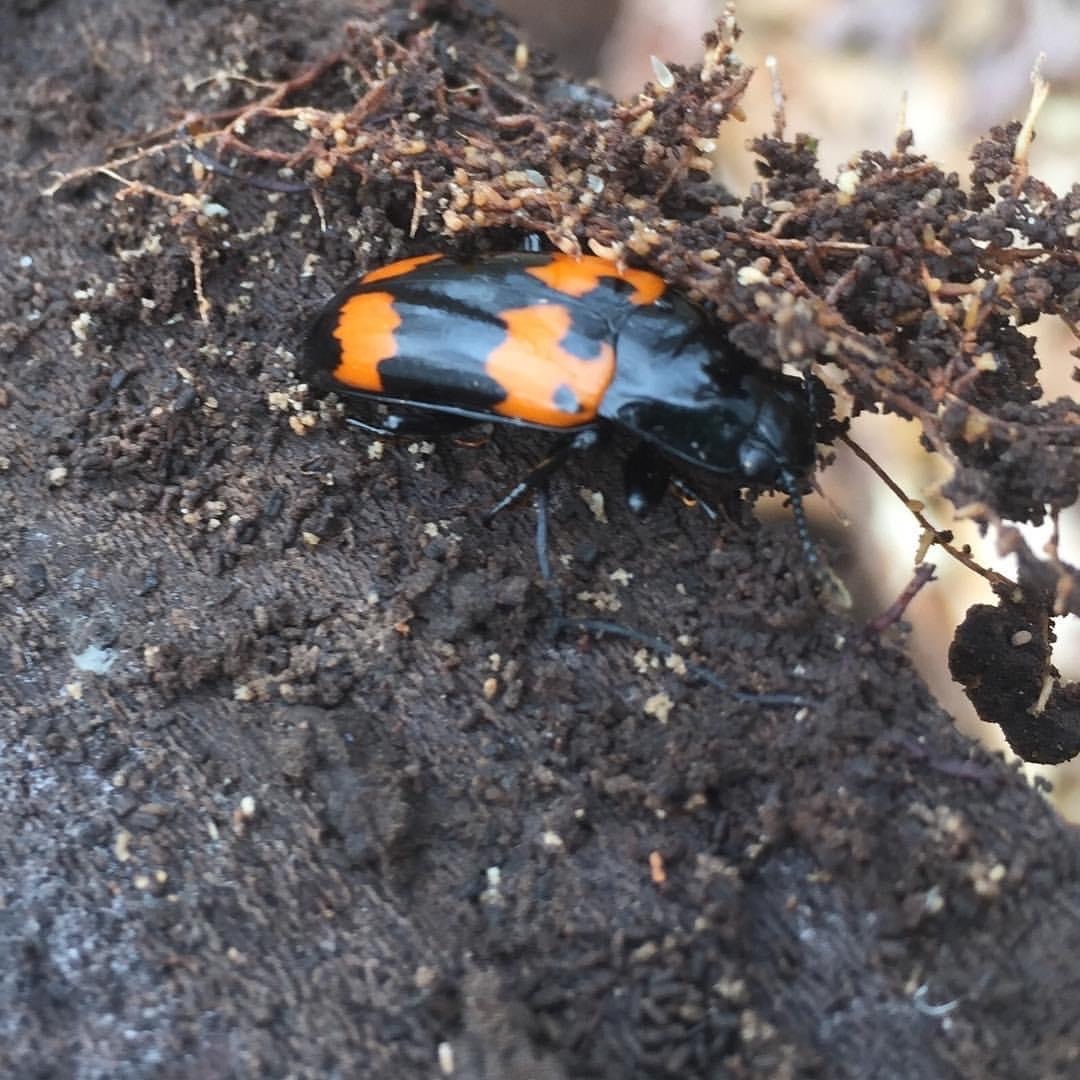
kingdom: Animalia
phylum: Arthropoda
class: Insecta
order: Coleoptera
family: Erotylidae
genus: Megalodacne
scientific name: Megalodacne heros
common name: Pleasing fungus beetle
